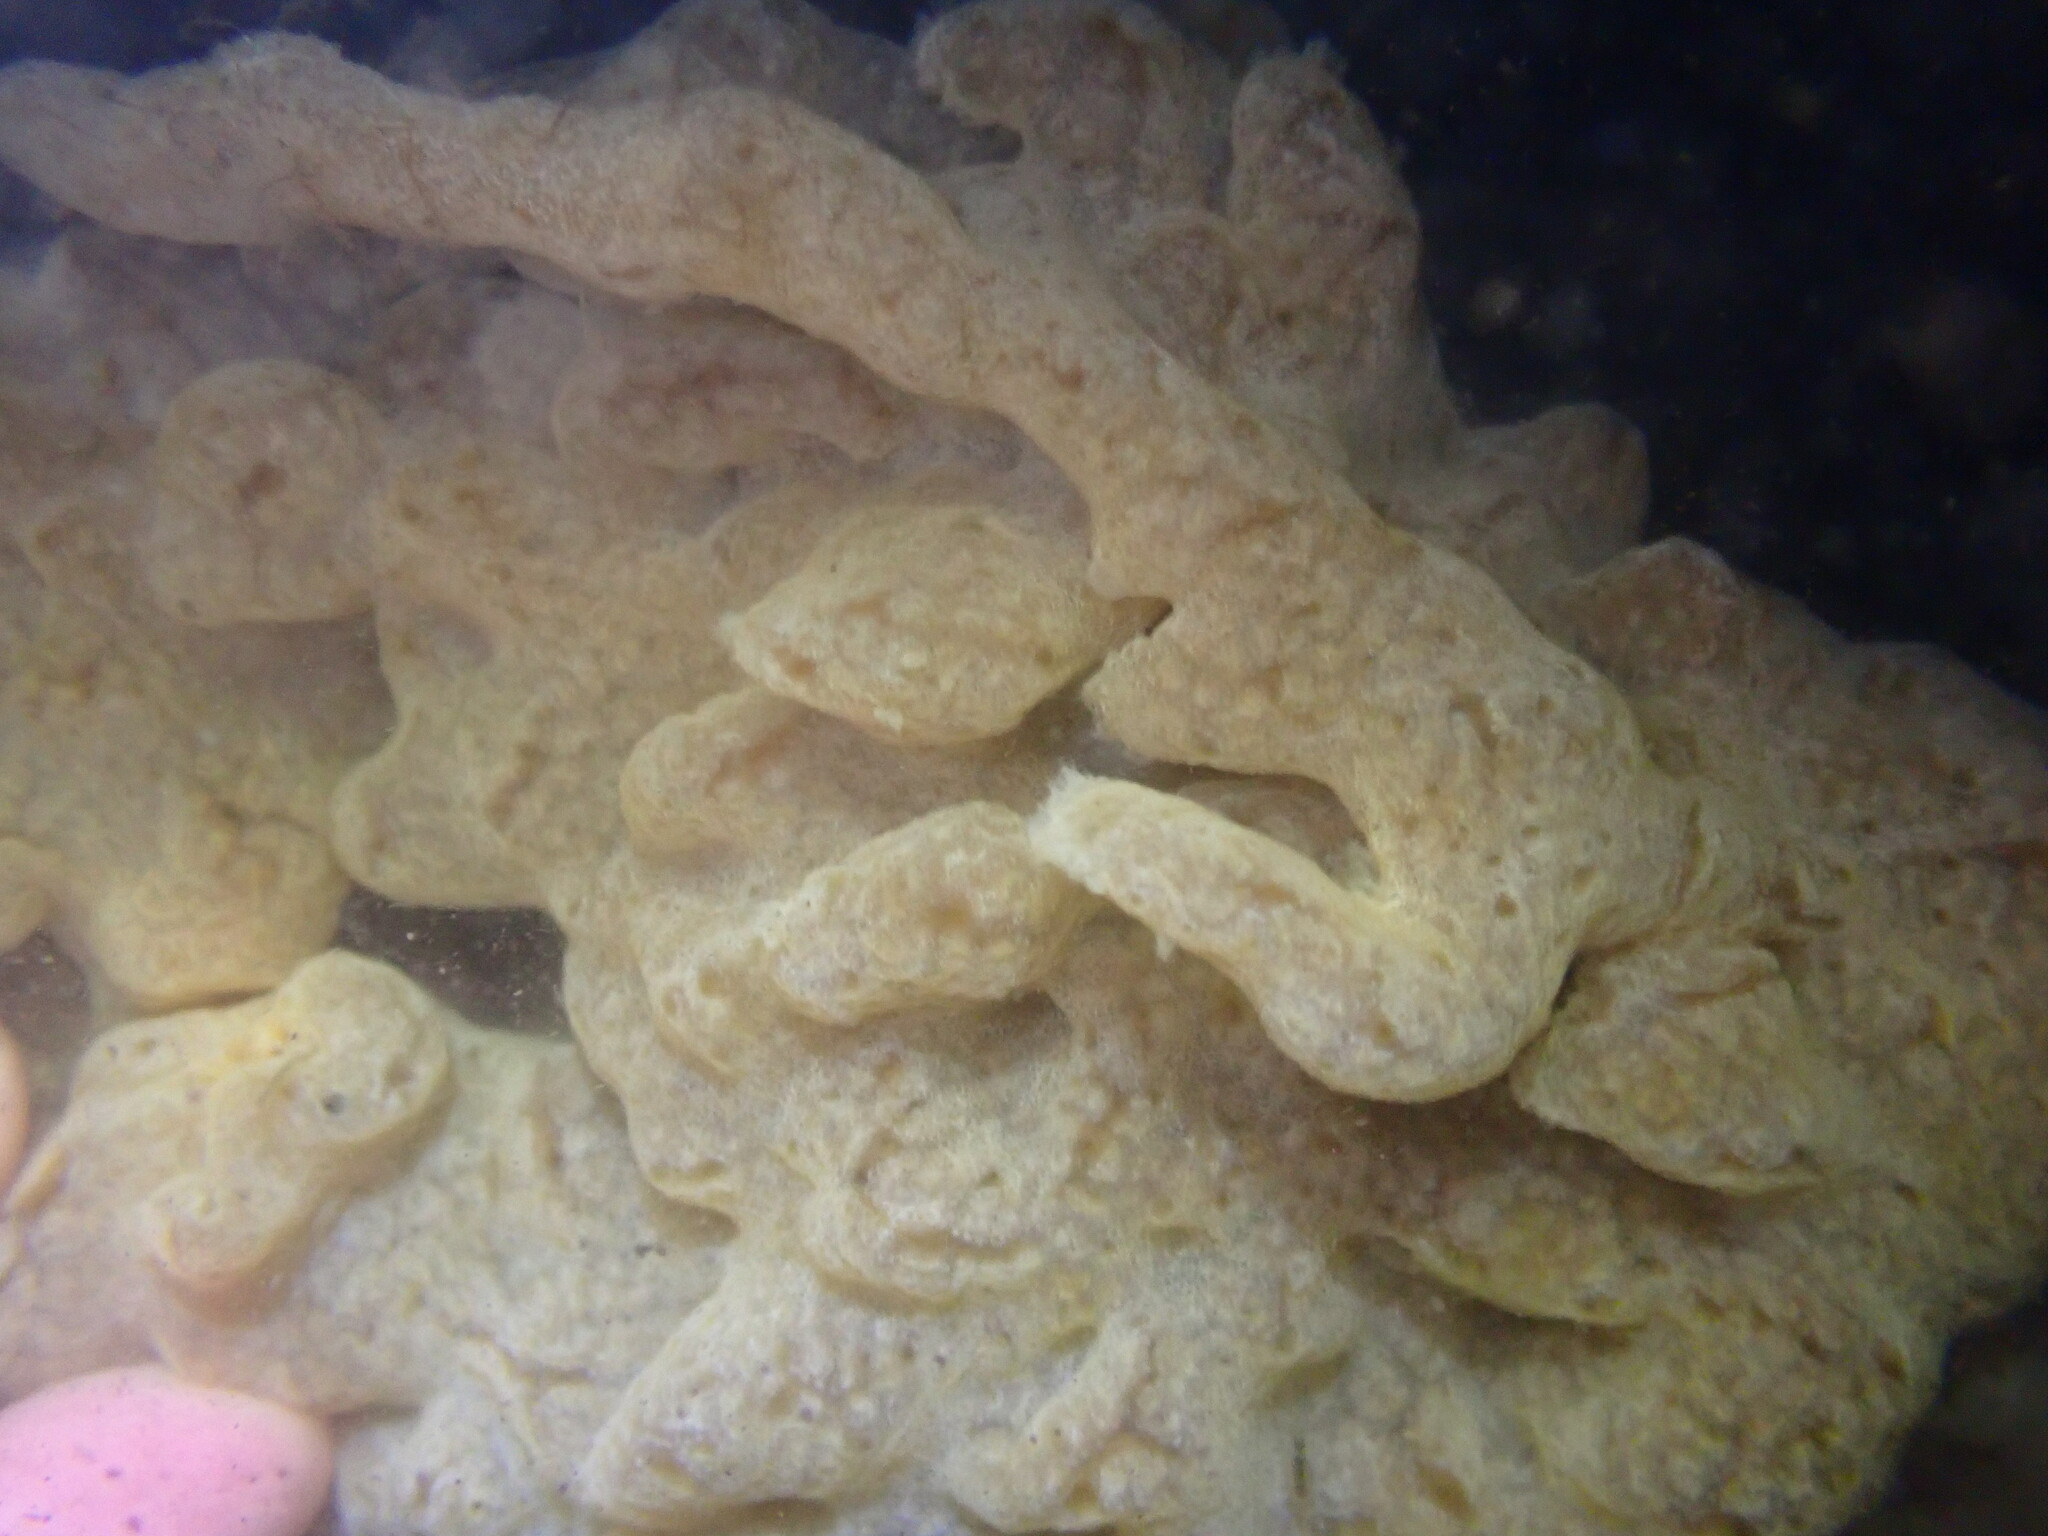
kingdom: Animalia
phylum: Chordata
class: Ascidiacea
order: Aplousobranchia
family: Didemnidae
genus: Didemnum
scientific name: Didemnum vexillum
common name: Compound sea squirt
